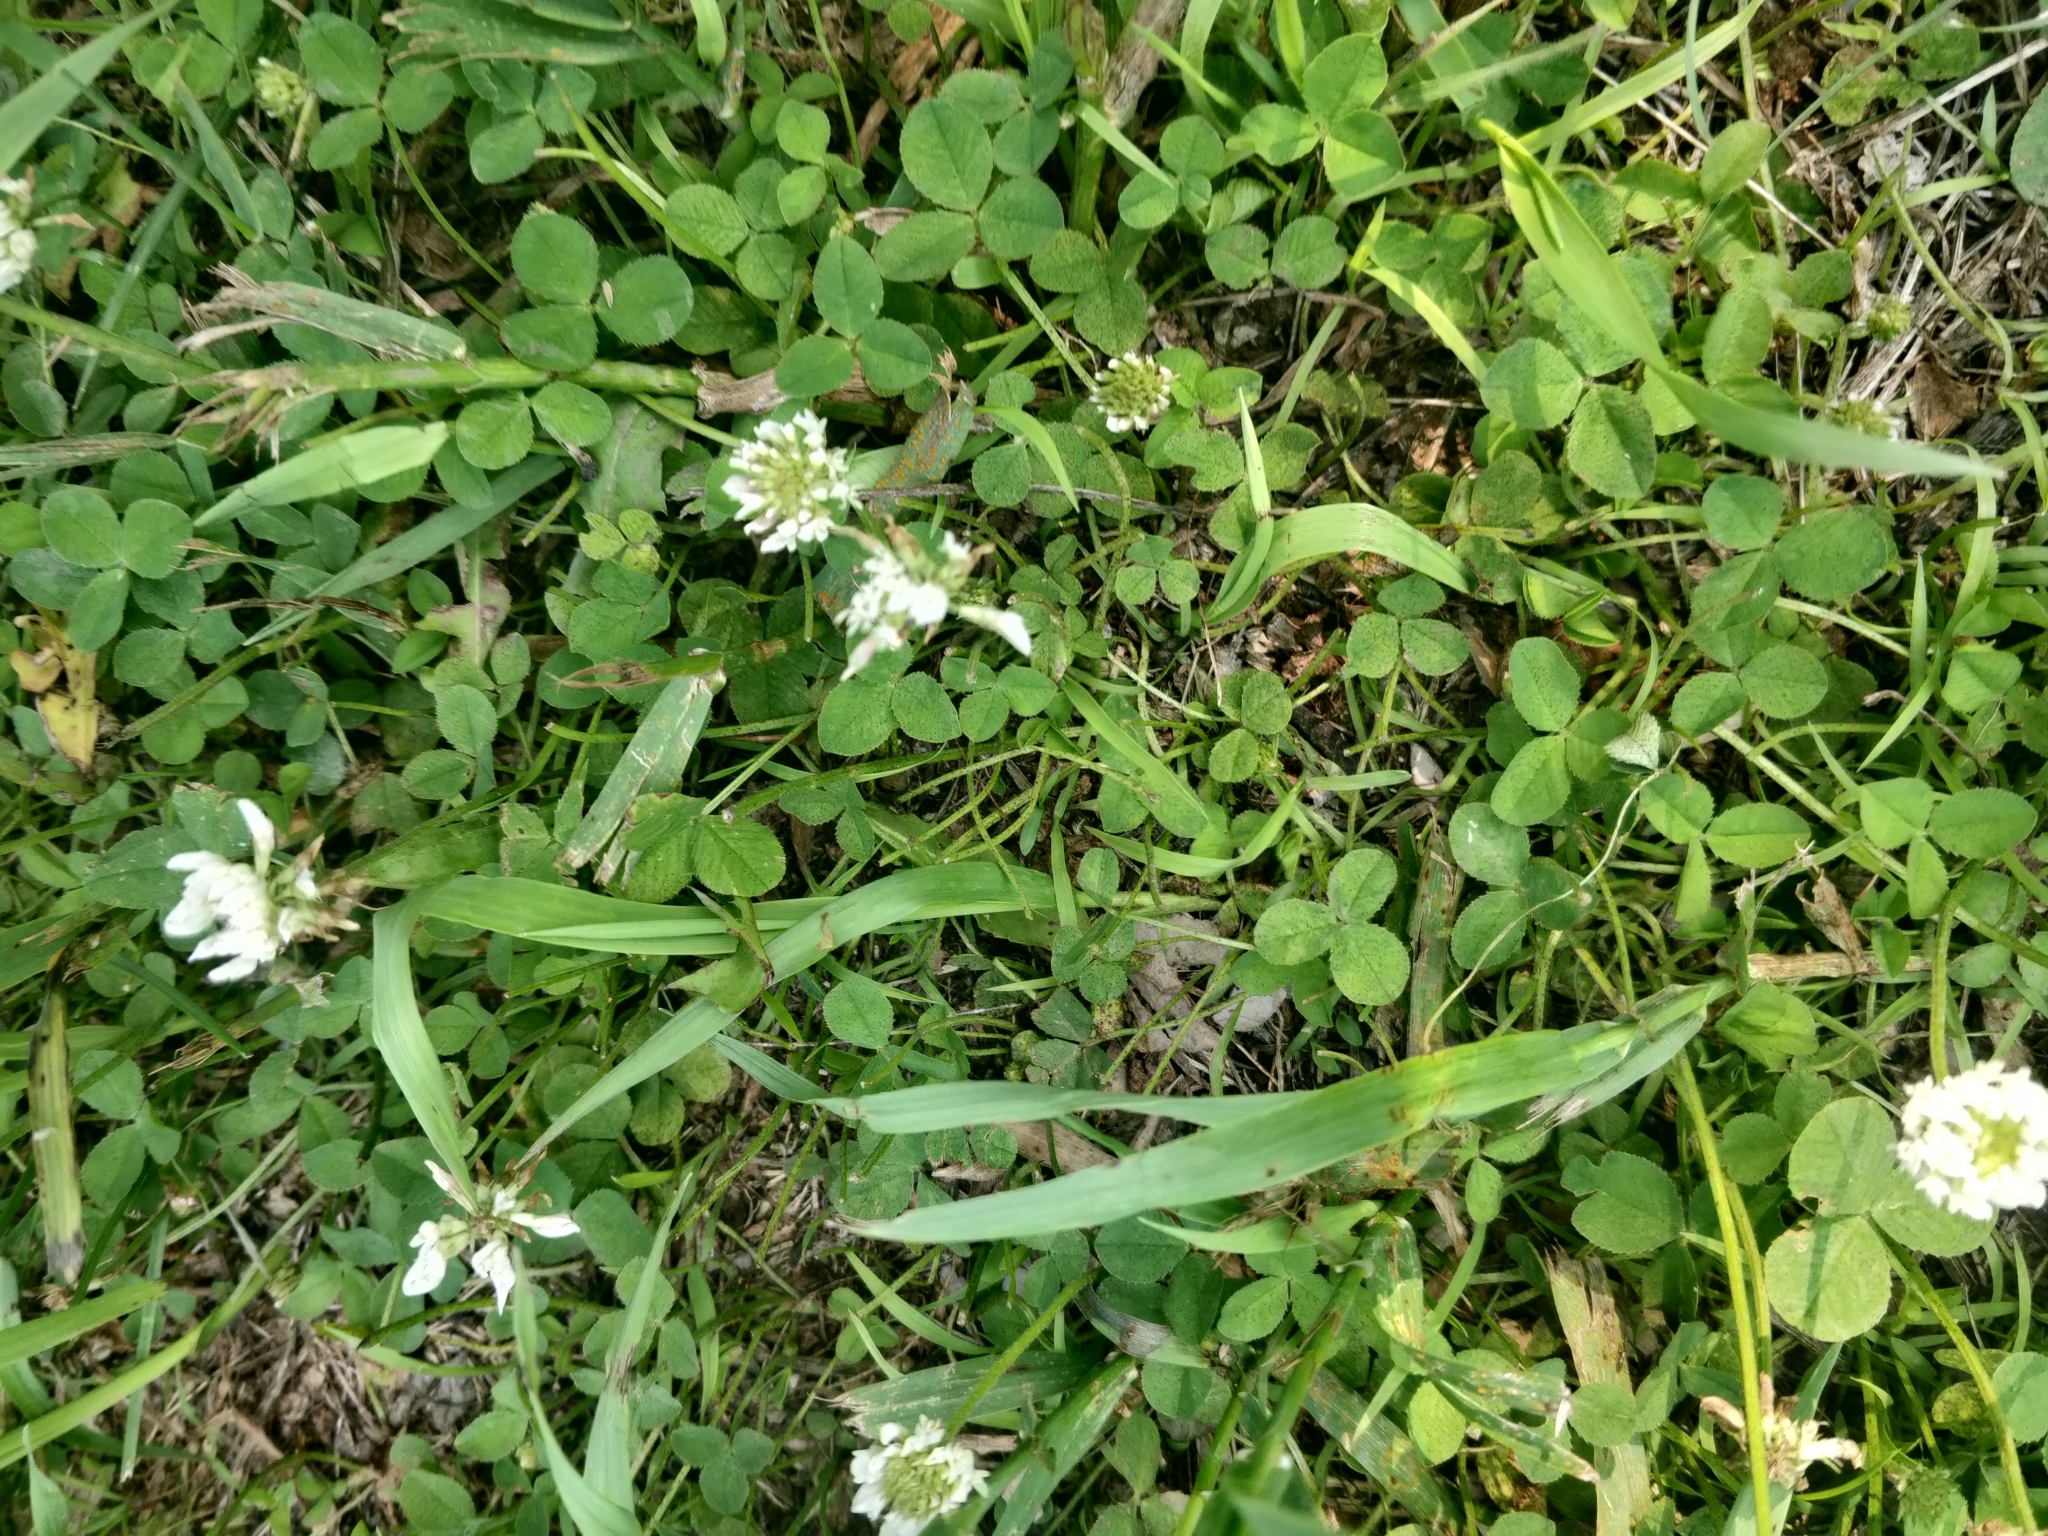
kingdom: Plantae
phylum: Tracheophyta
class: Magnoliopsida
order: Fabales
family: Fabaceae
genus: Trifolium
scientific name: Trifolium repens
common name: White clover
